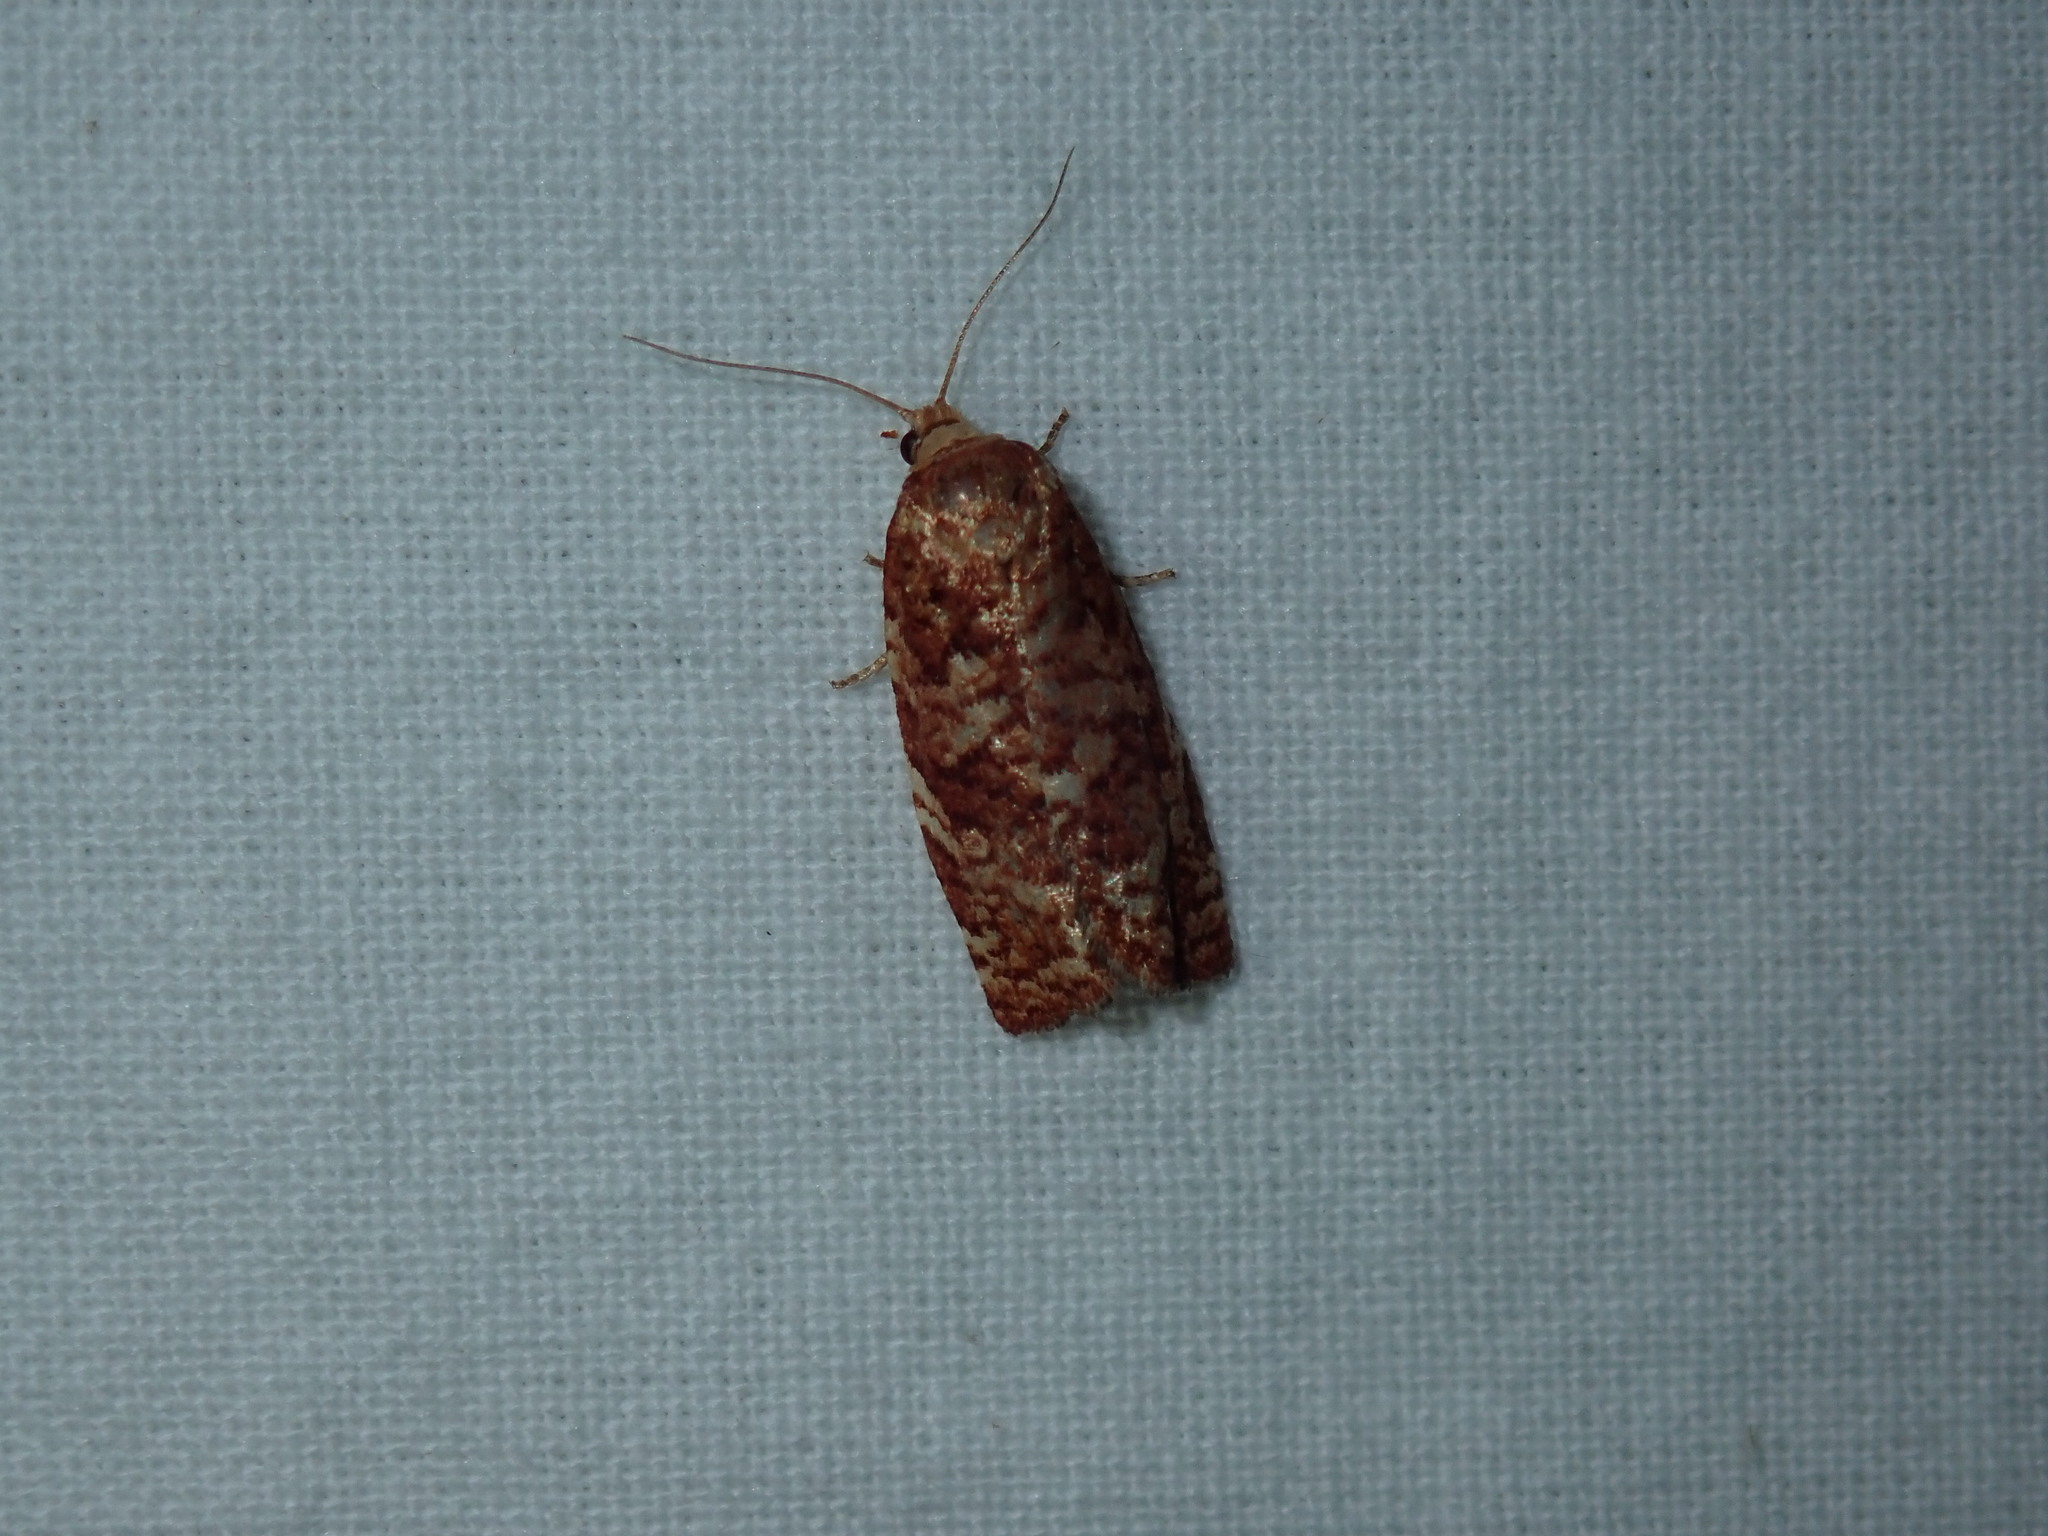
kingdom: Animalia
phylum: Arthropoda
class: Insecta
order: Lepidoptera
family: Tortricidae
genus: Choristoneura
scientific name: Choristoneura pinus
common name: Jack pine budworm
